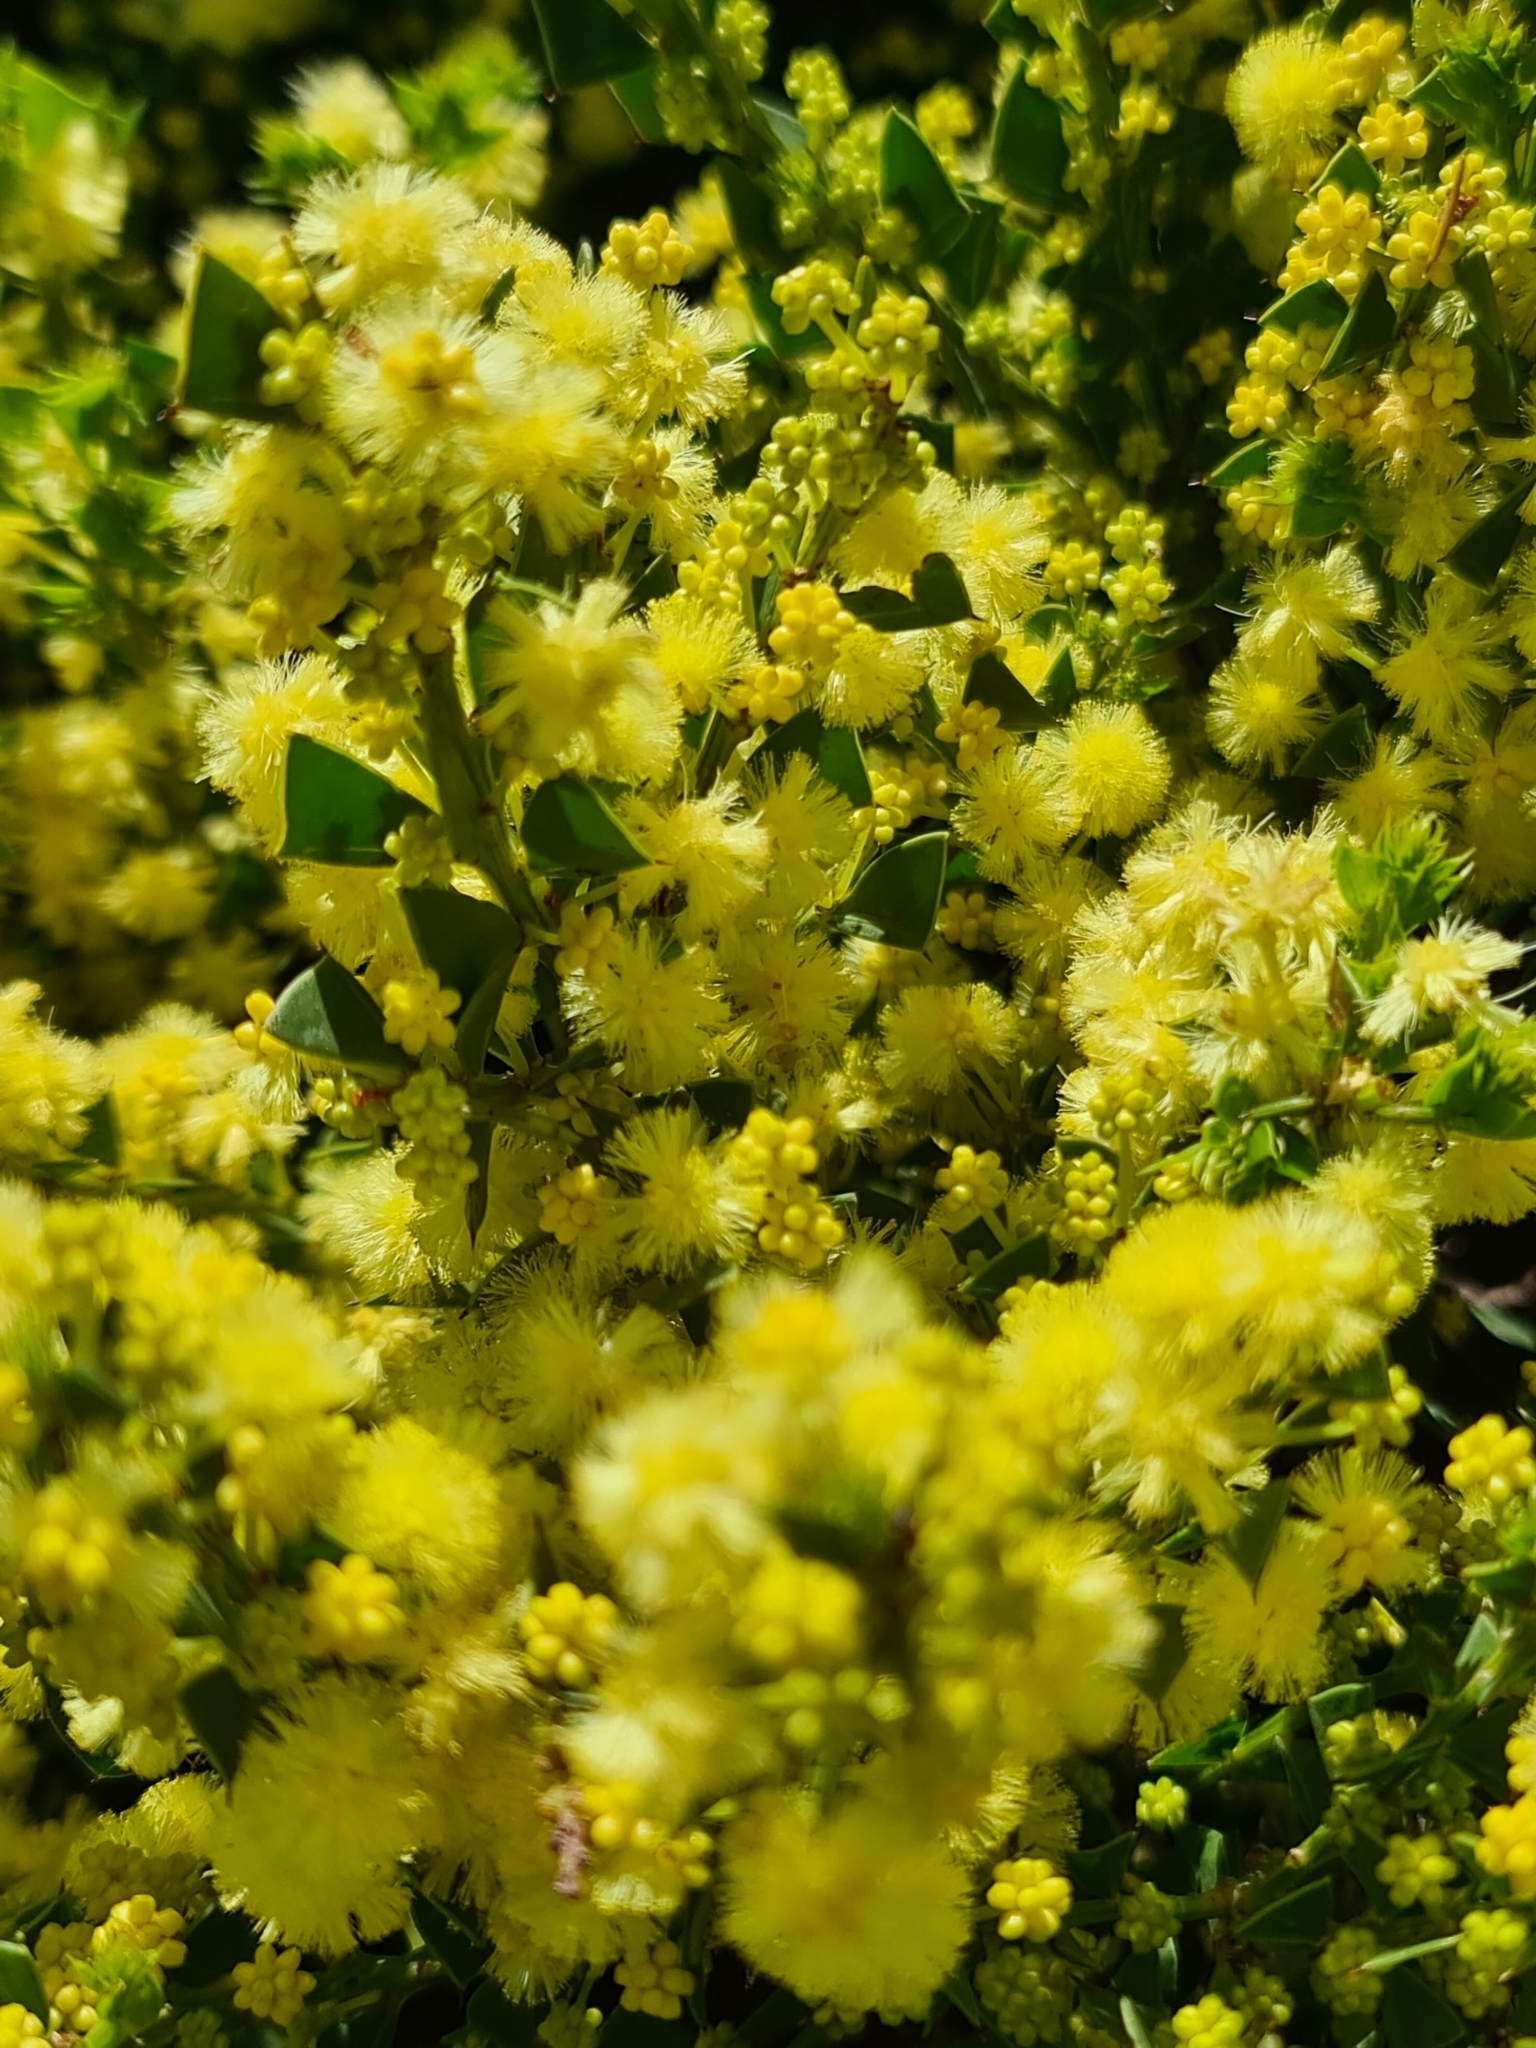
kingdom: Plantae
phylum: Tracheophyta
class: Magnoliopsida
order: Fabales
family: Fabaceae
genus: Acacia
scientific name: Acacia trapezoidea
